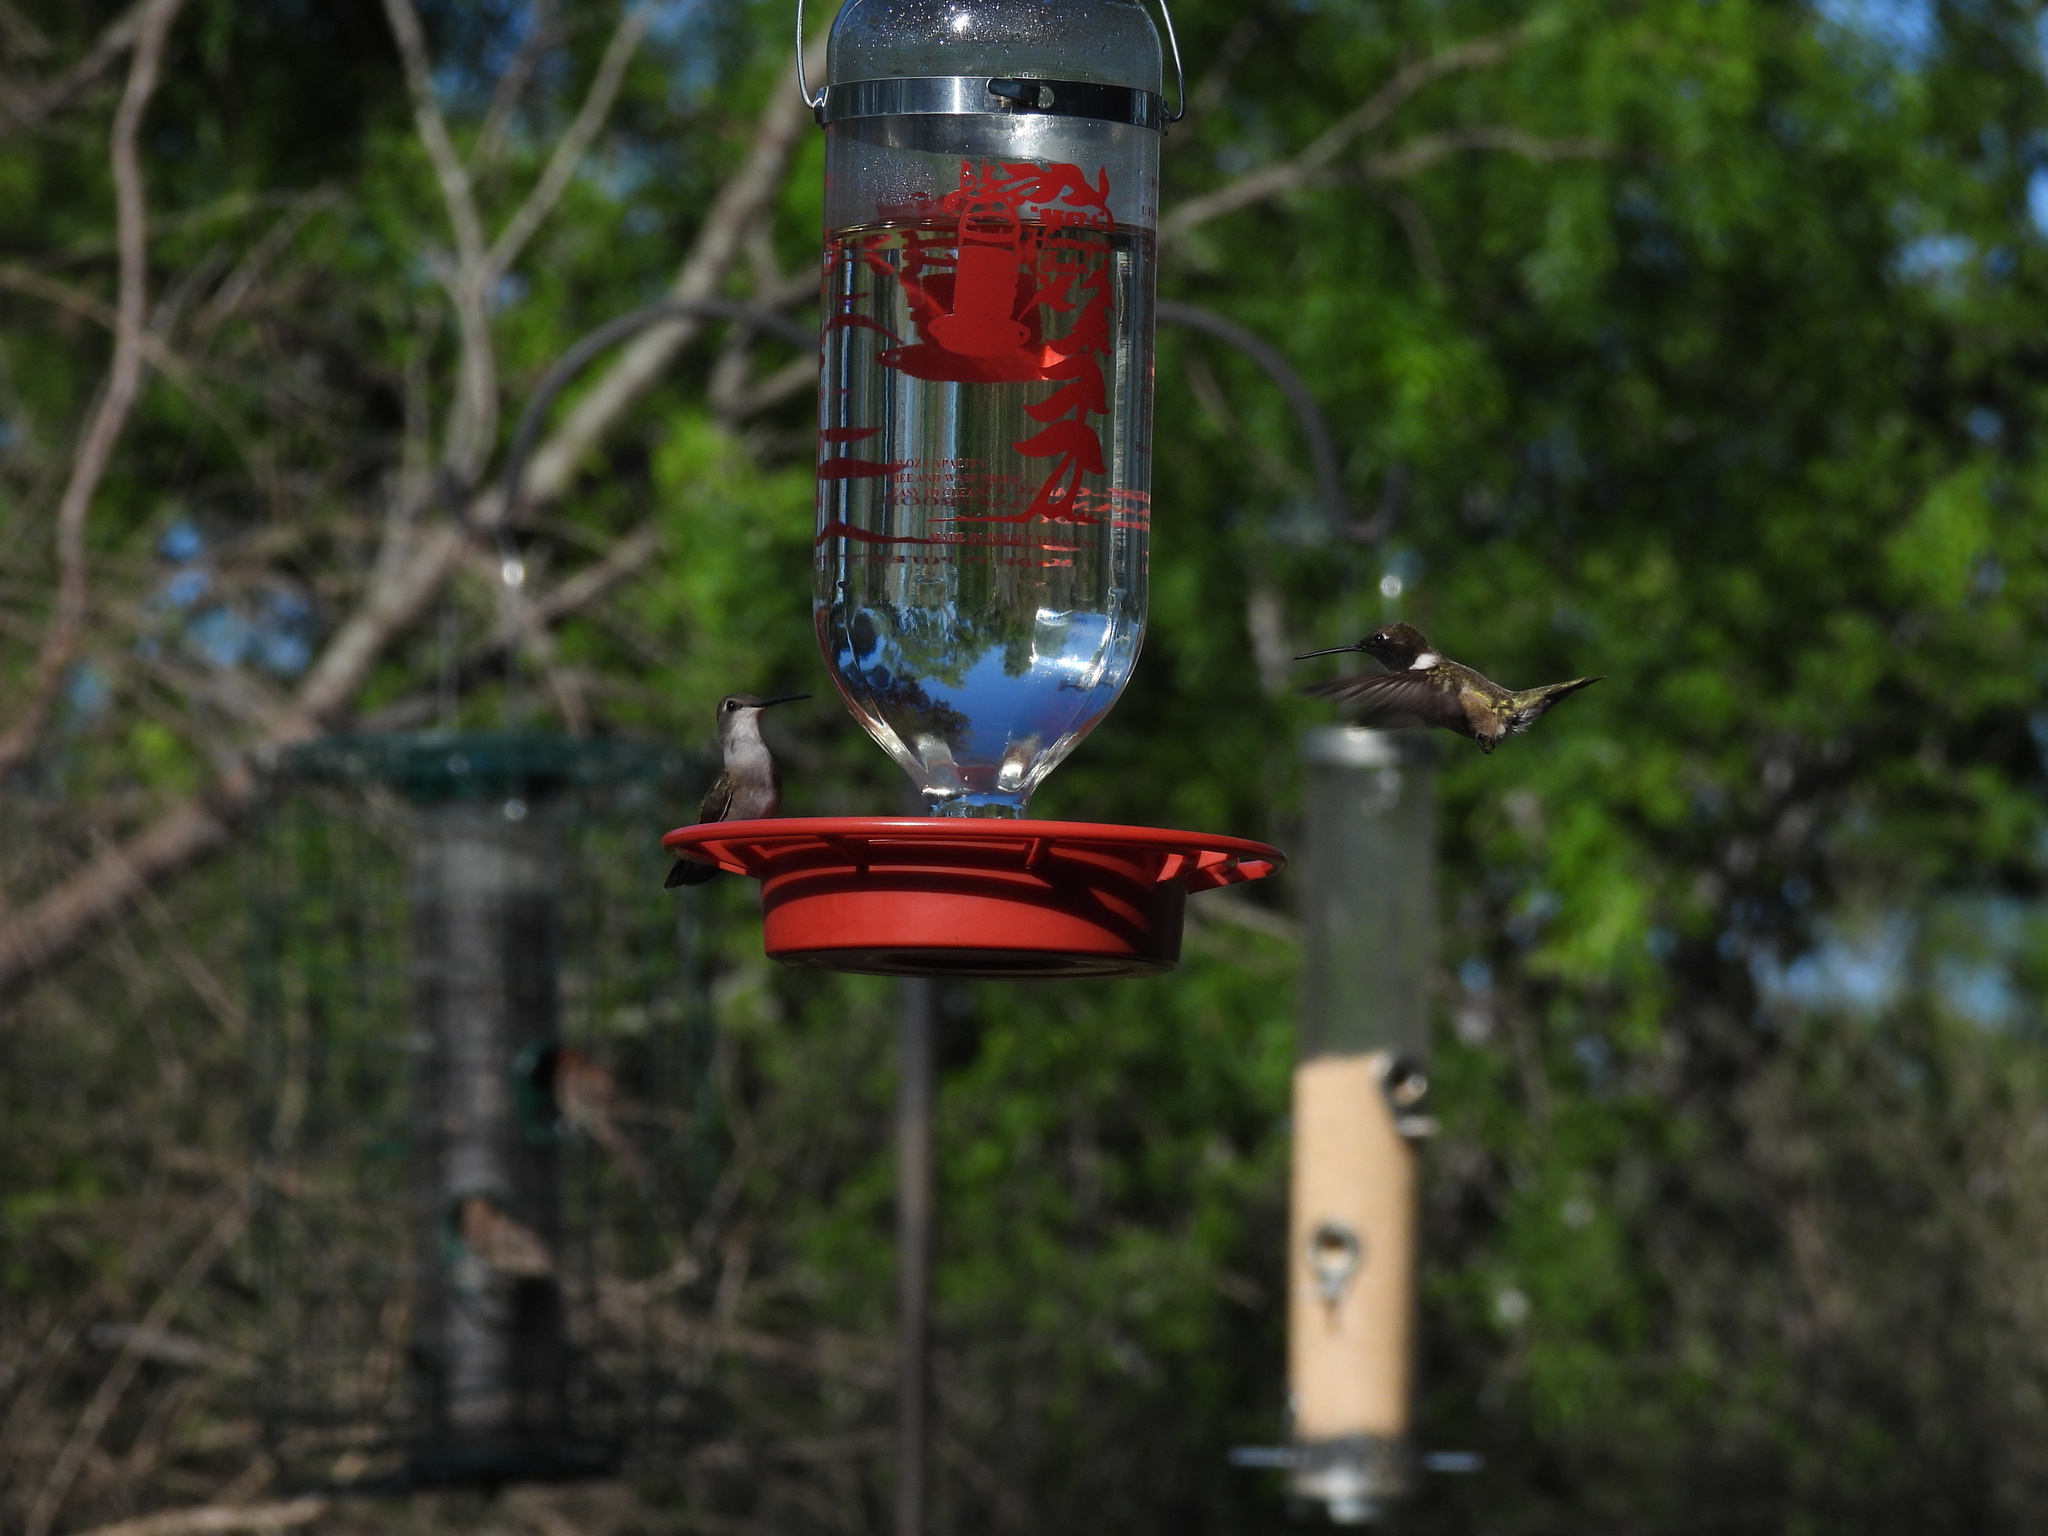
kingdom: Animalia
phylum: Chordata
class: Aves
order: Apodiformes
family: Trochilidae
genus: Archilochus
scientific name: Archilochus alexandri
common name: Black-chinned hummingbird
